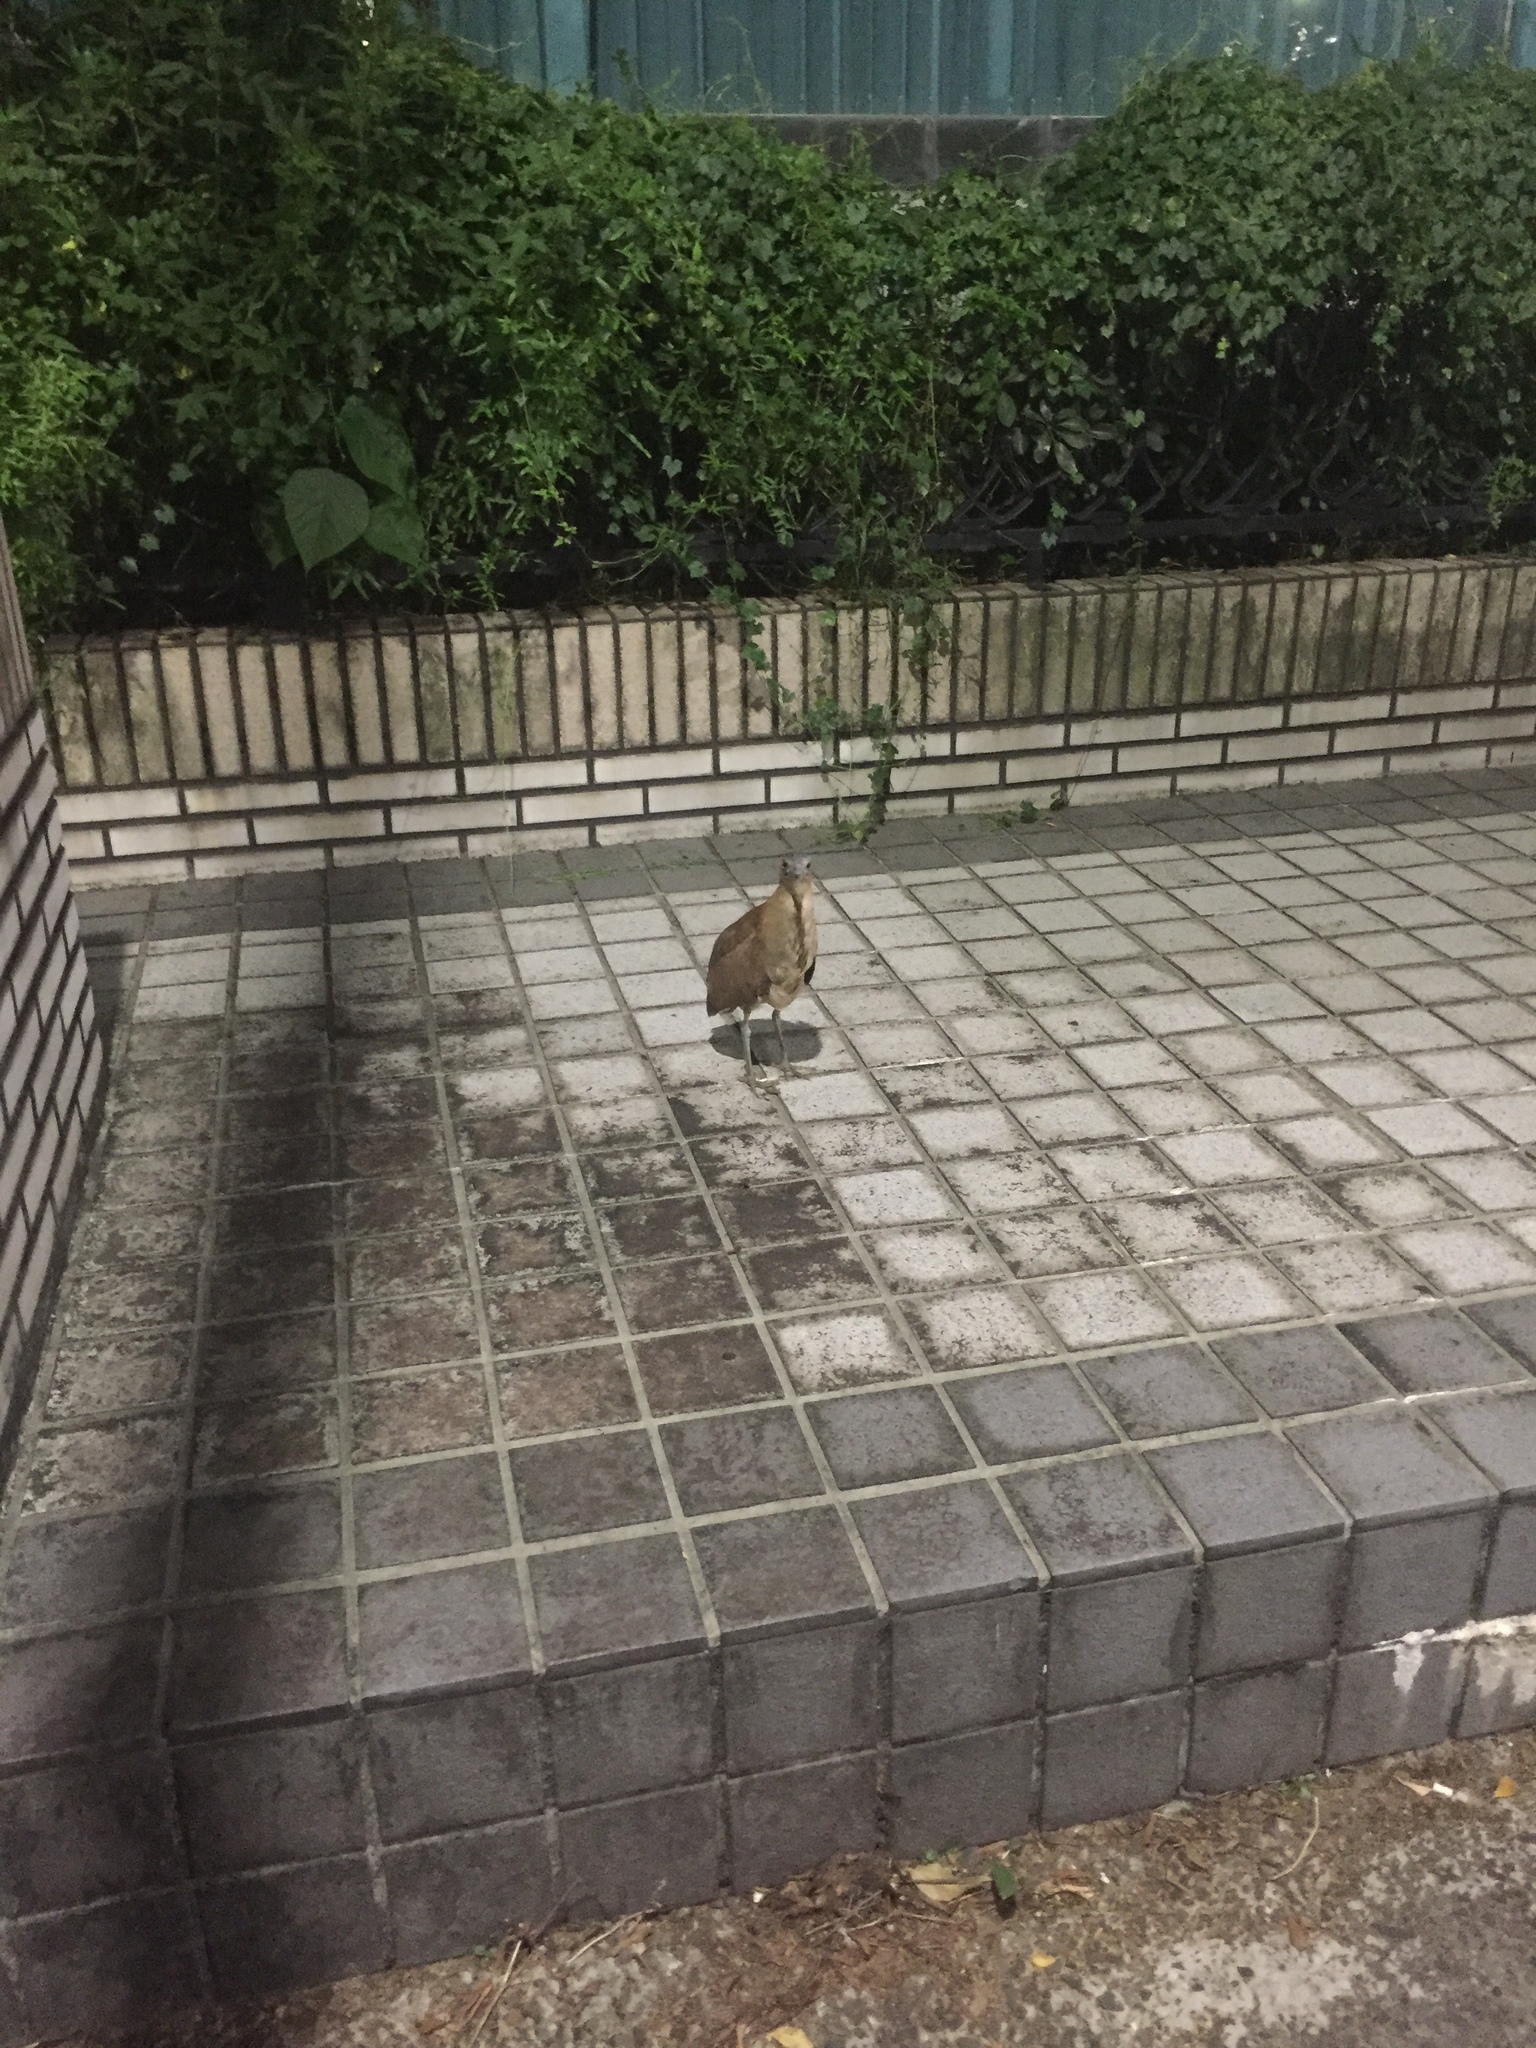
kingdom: Animalia
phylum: Chordata
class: Aves
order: Pelecaniformes
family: Ardeidae
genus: Gorsachius
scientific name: Gorsachius melanolophus
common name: Malayan night heron
